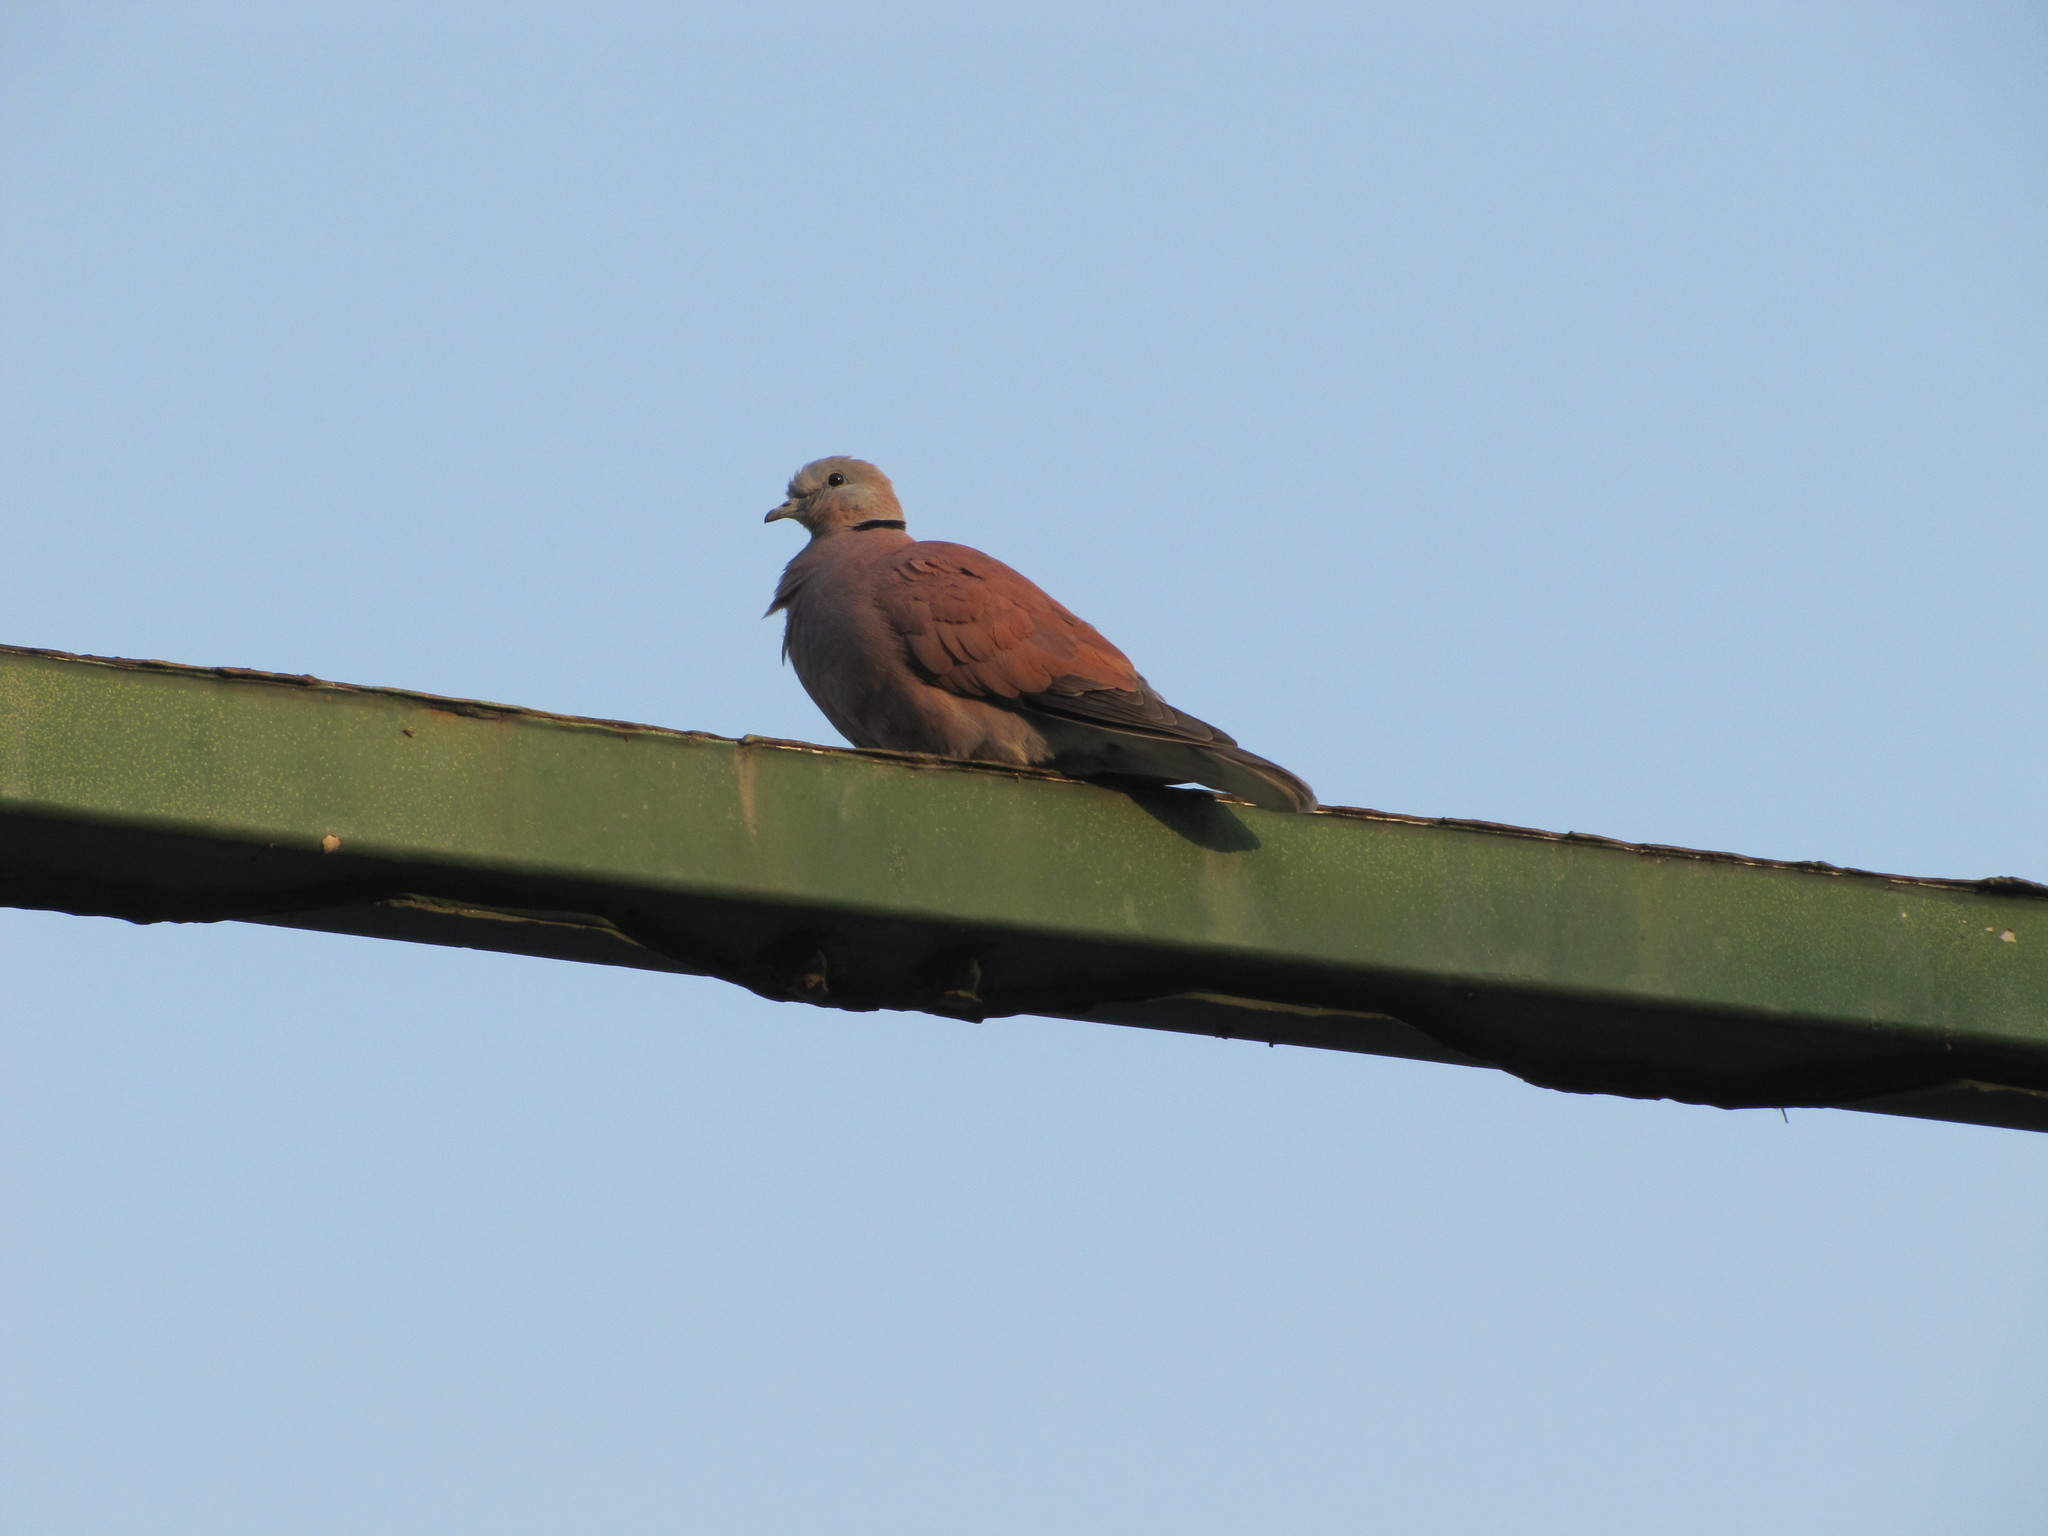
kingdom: Animalia
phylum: Chordata
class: Aves
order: Columbiformes
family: Columbidae
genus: Streptopelia
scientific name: Streptopelia tranquebarica
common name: Red turtle dove
